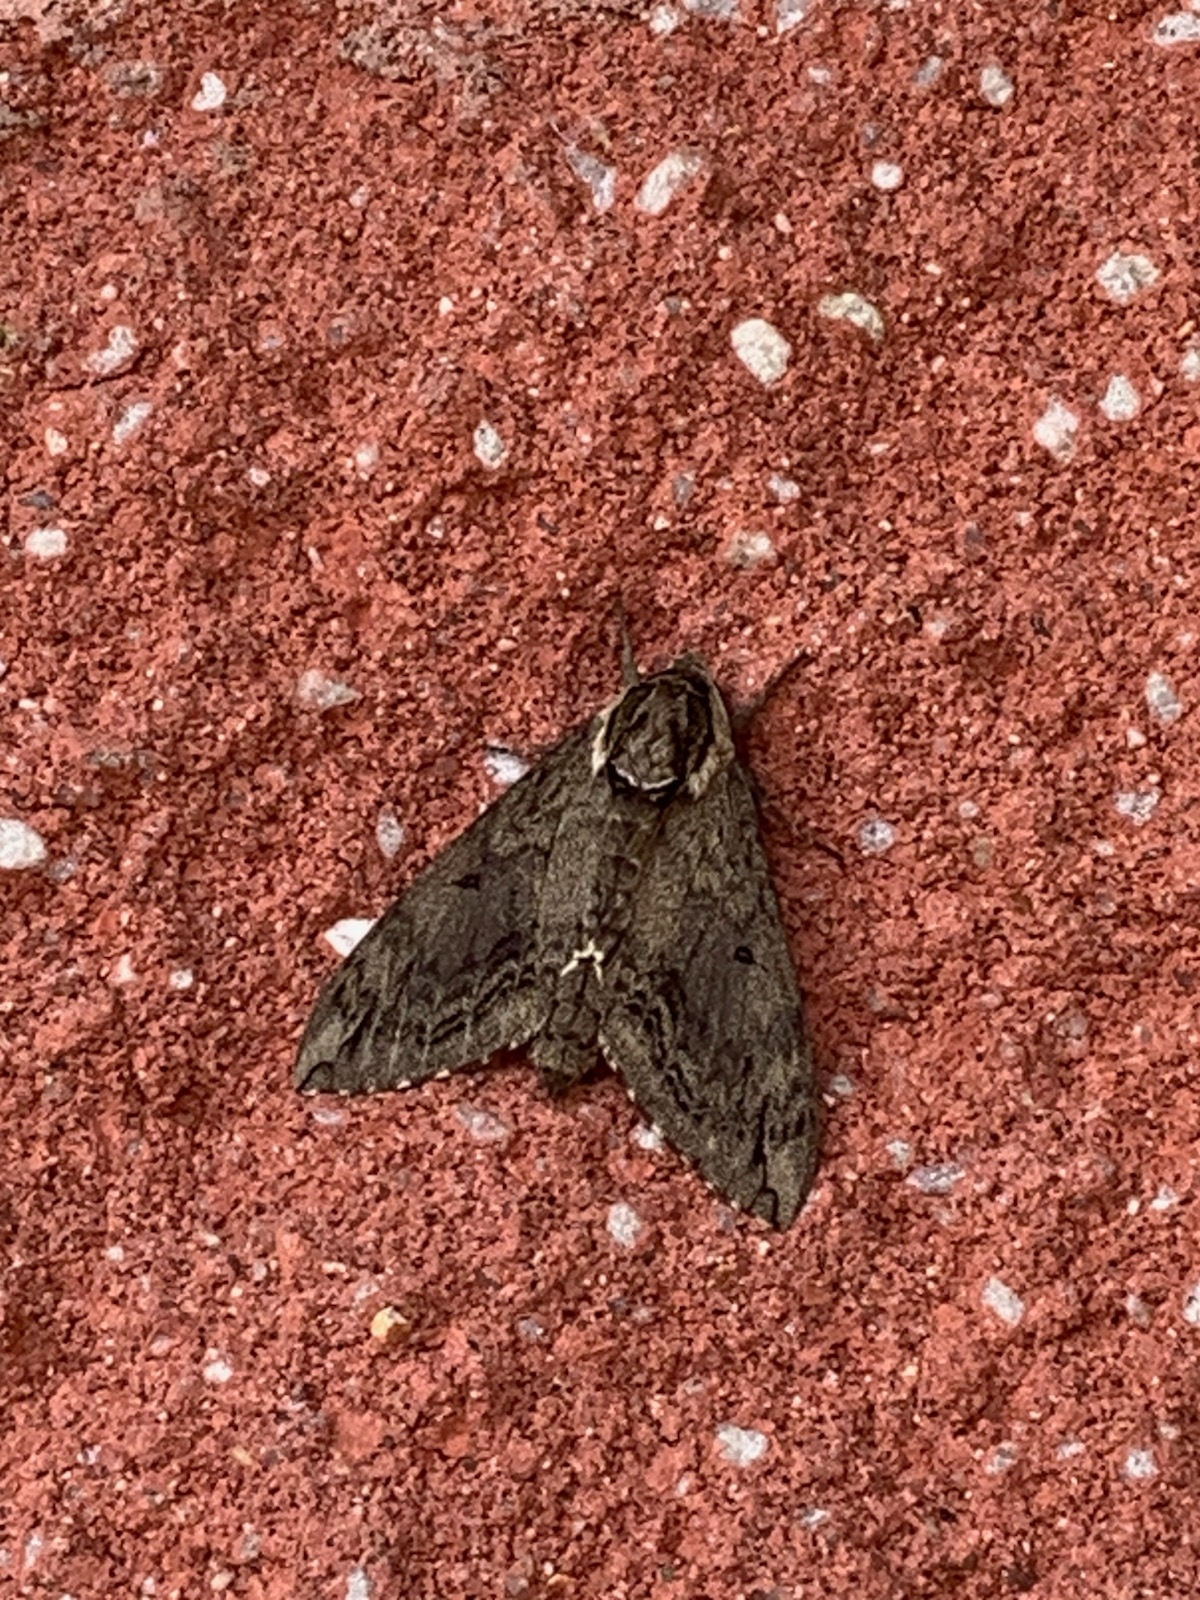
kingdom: Animalia
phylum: Arthropoda
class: Insecta
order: Lepidoptera
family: Sphingidae
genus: Ceratomia
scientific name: Ceratomia catalpae
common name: Catalpa hornworm
